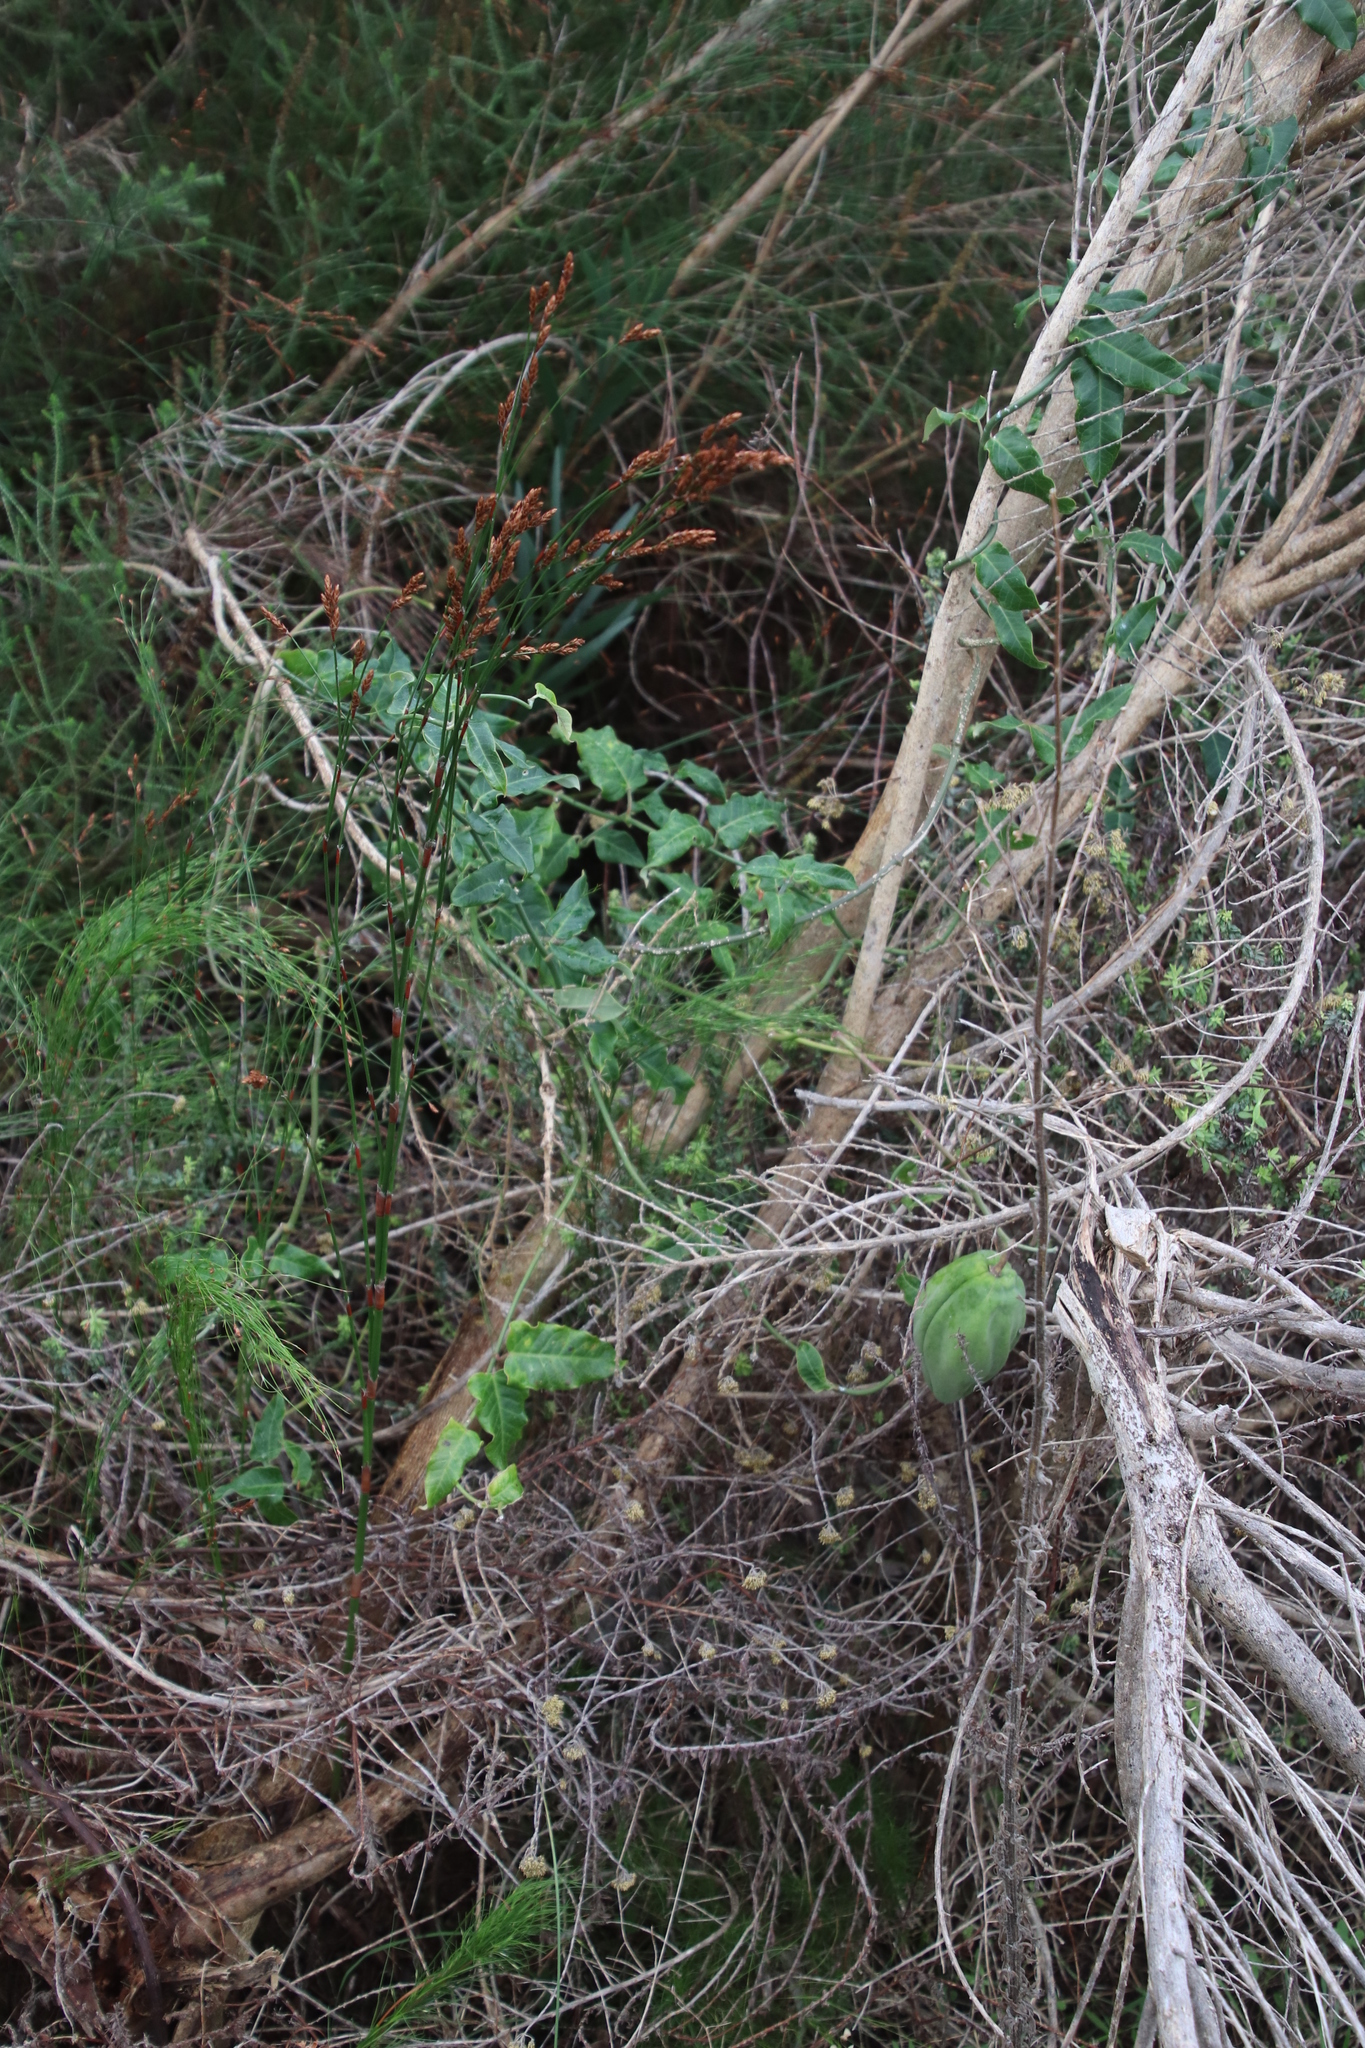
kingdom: Plantae
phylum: Tracheophyta
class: Magnoliopsida
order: Gentianales
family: Apocynaceae
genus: Araujia
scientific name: Araujia sericifera
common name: White bladderflower
